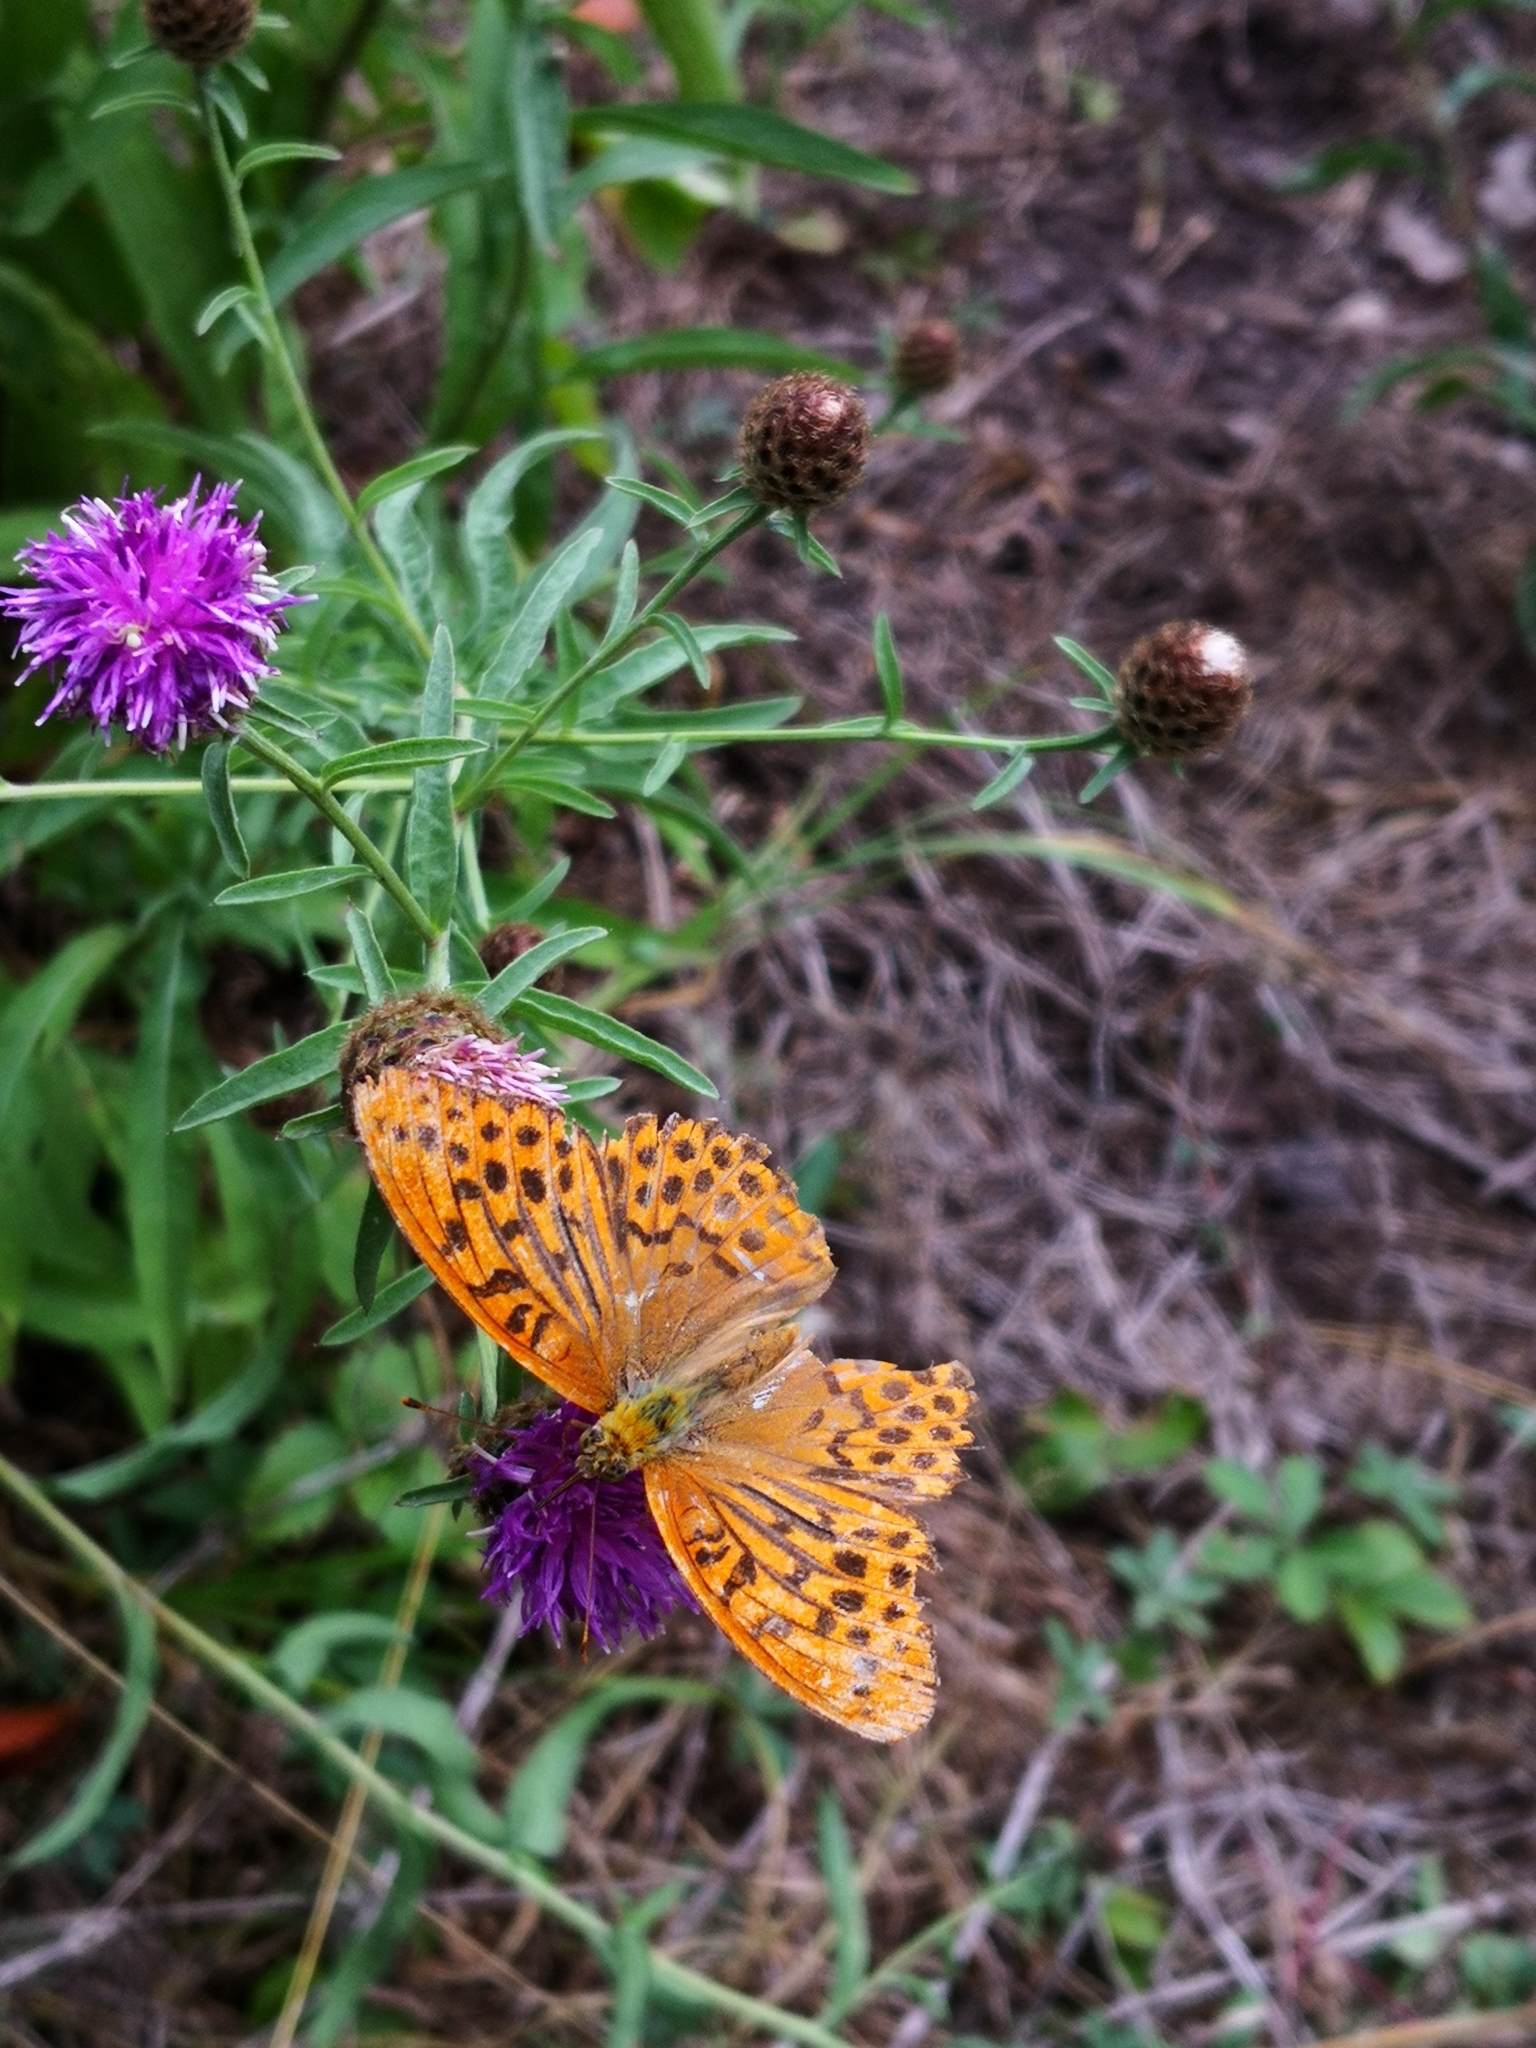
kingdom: Animalia
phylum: Arthropoda
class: Insecta
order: Lepidoptera
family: Nymphalidae
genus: Argynnis
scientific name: Argynnis paphia
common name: Silver-washed fritillary
